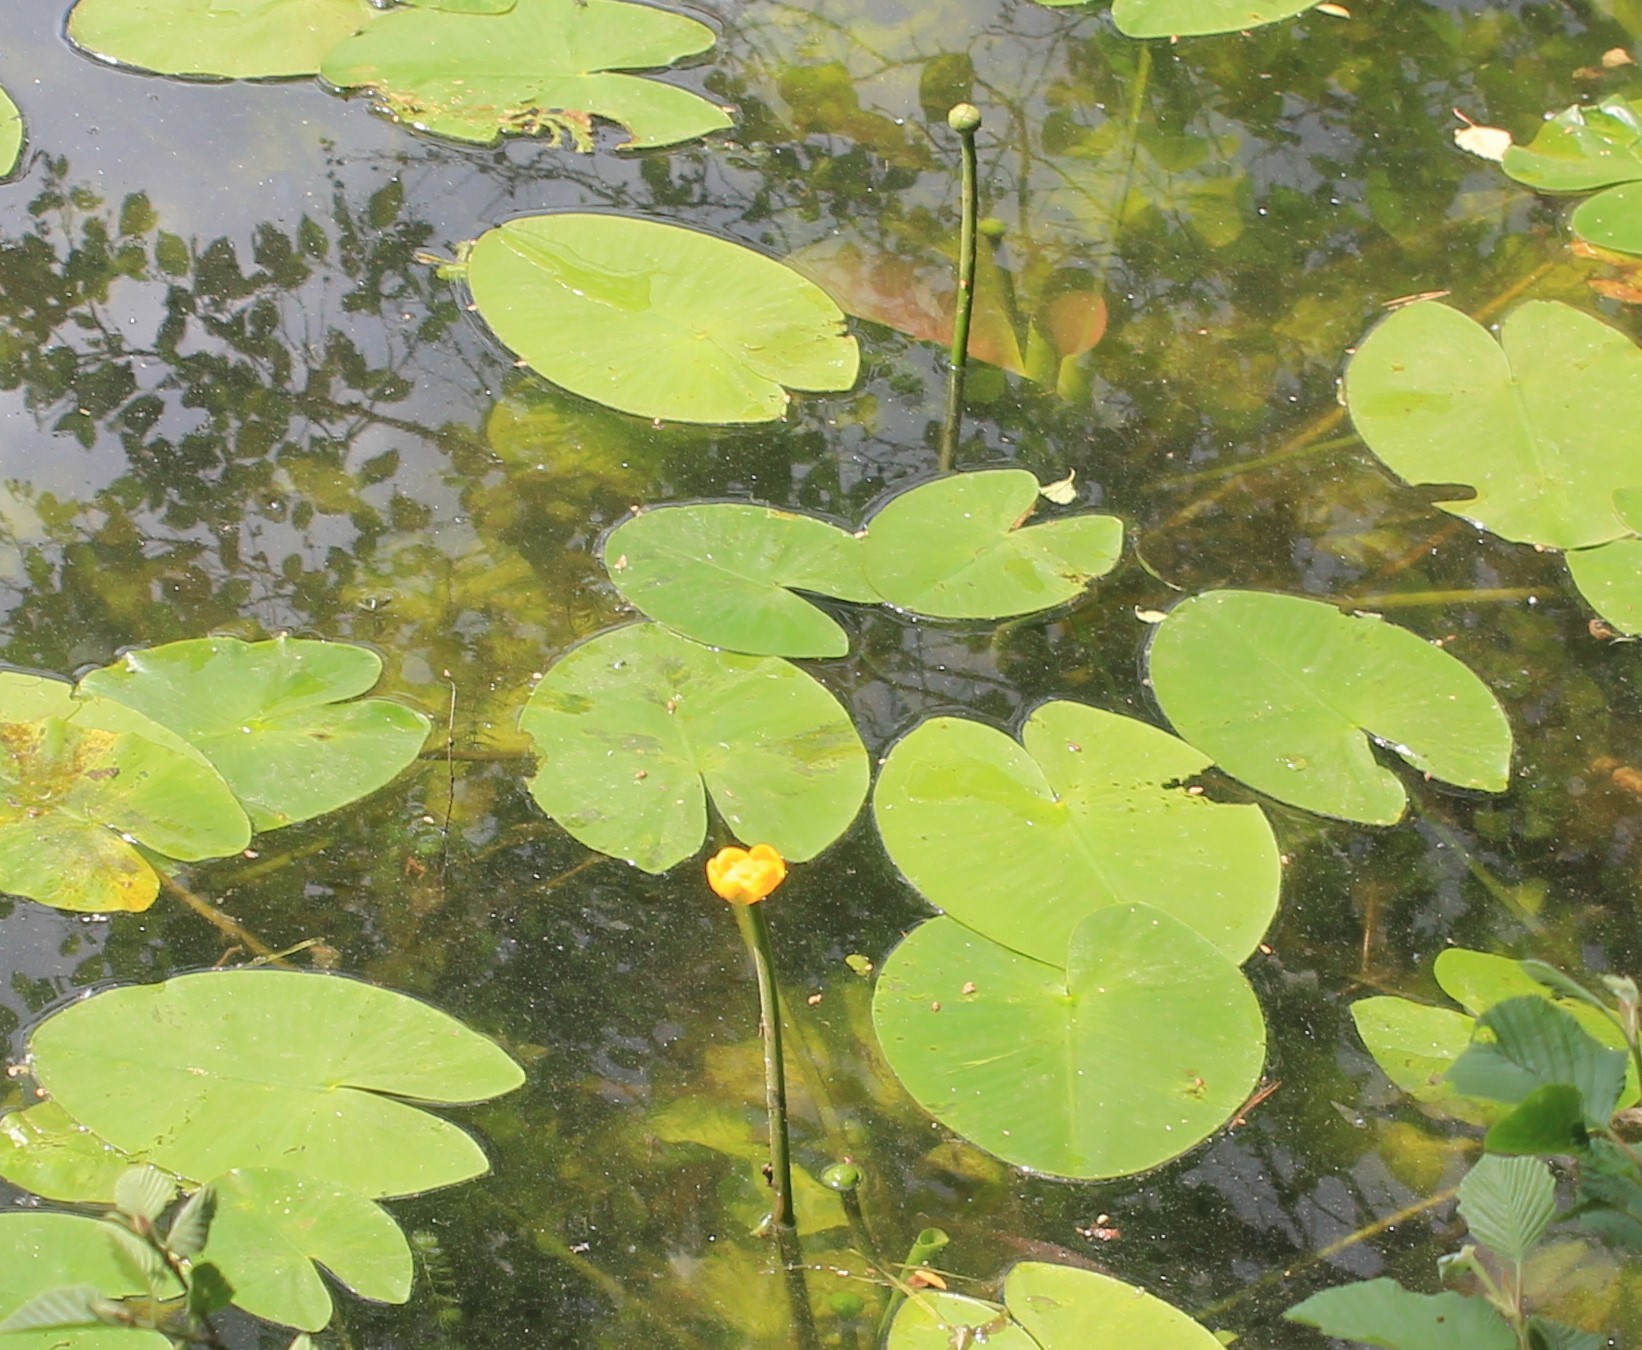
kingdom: Plantae
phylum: Tracheophyta
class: Magnoliopsida
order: Nymphaeales
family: Nymphaeaceae
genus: Nuphar
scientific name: Nuphar lutea
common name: Yellow water-lily
